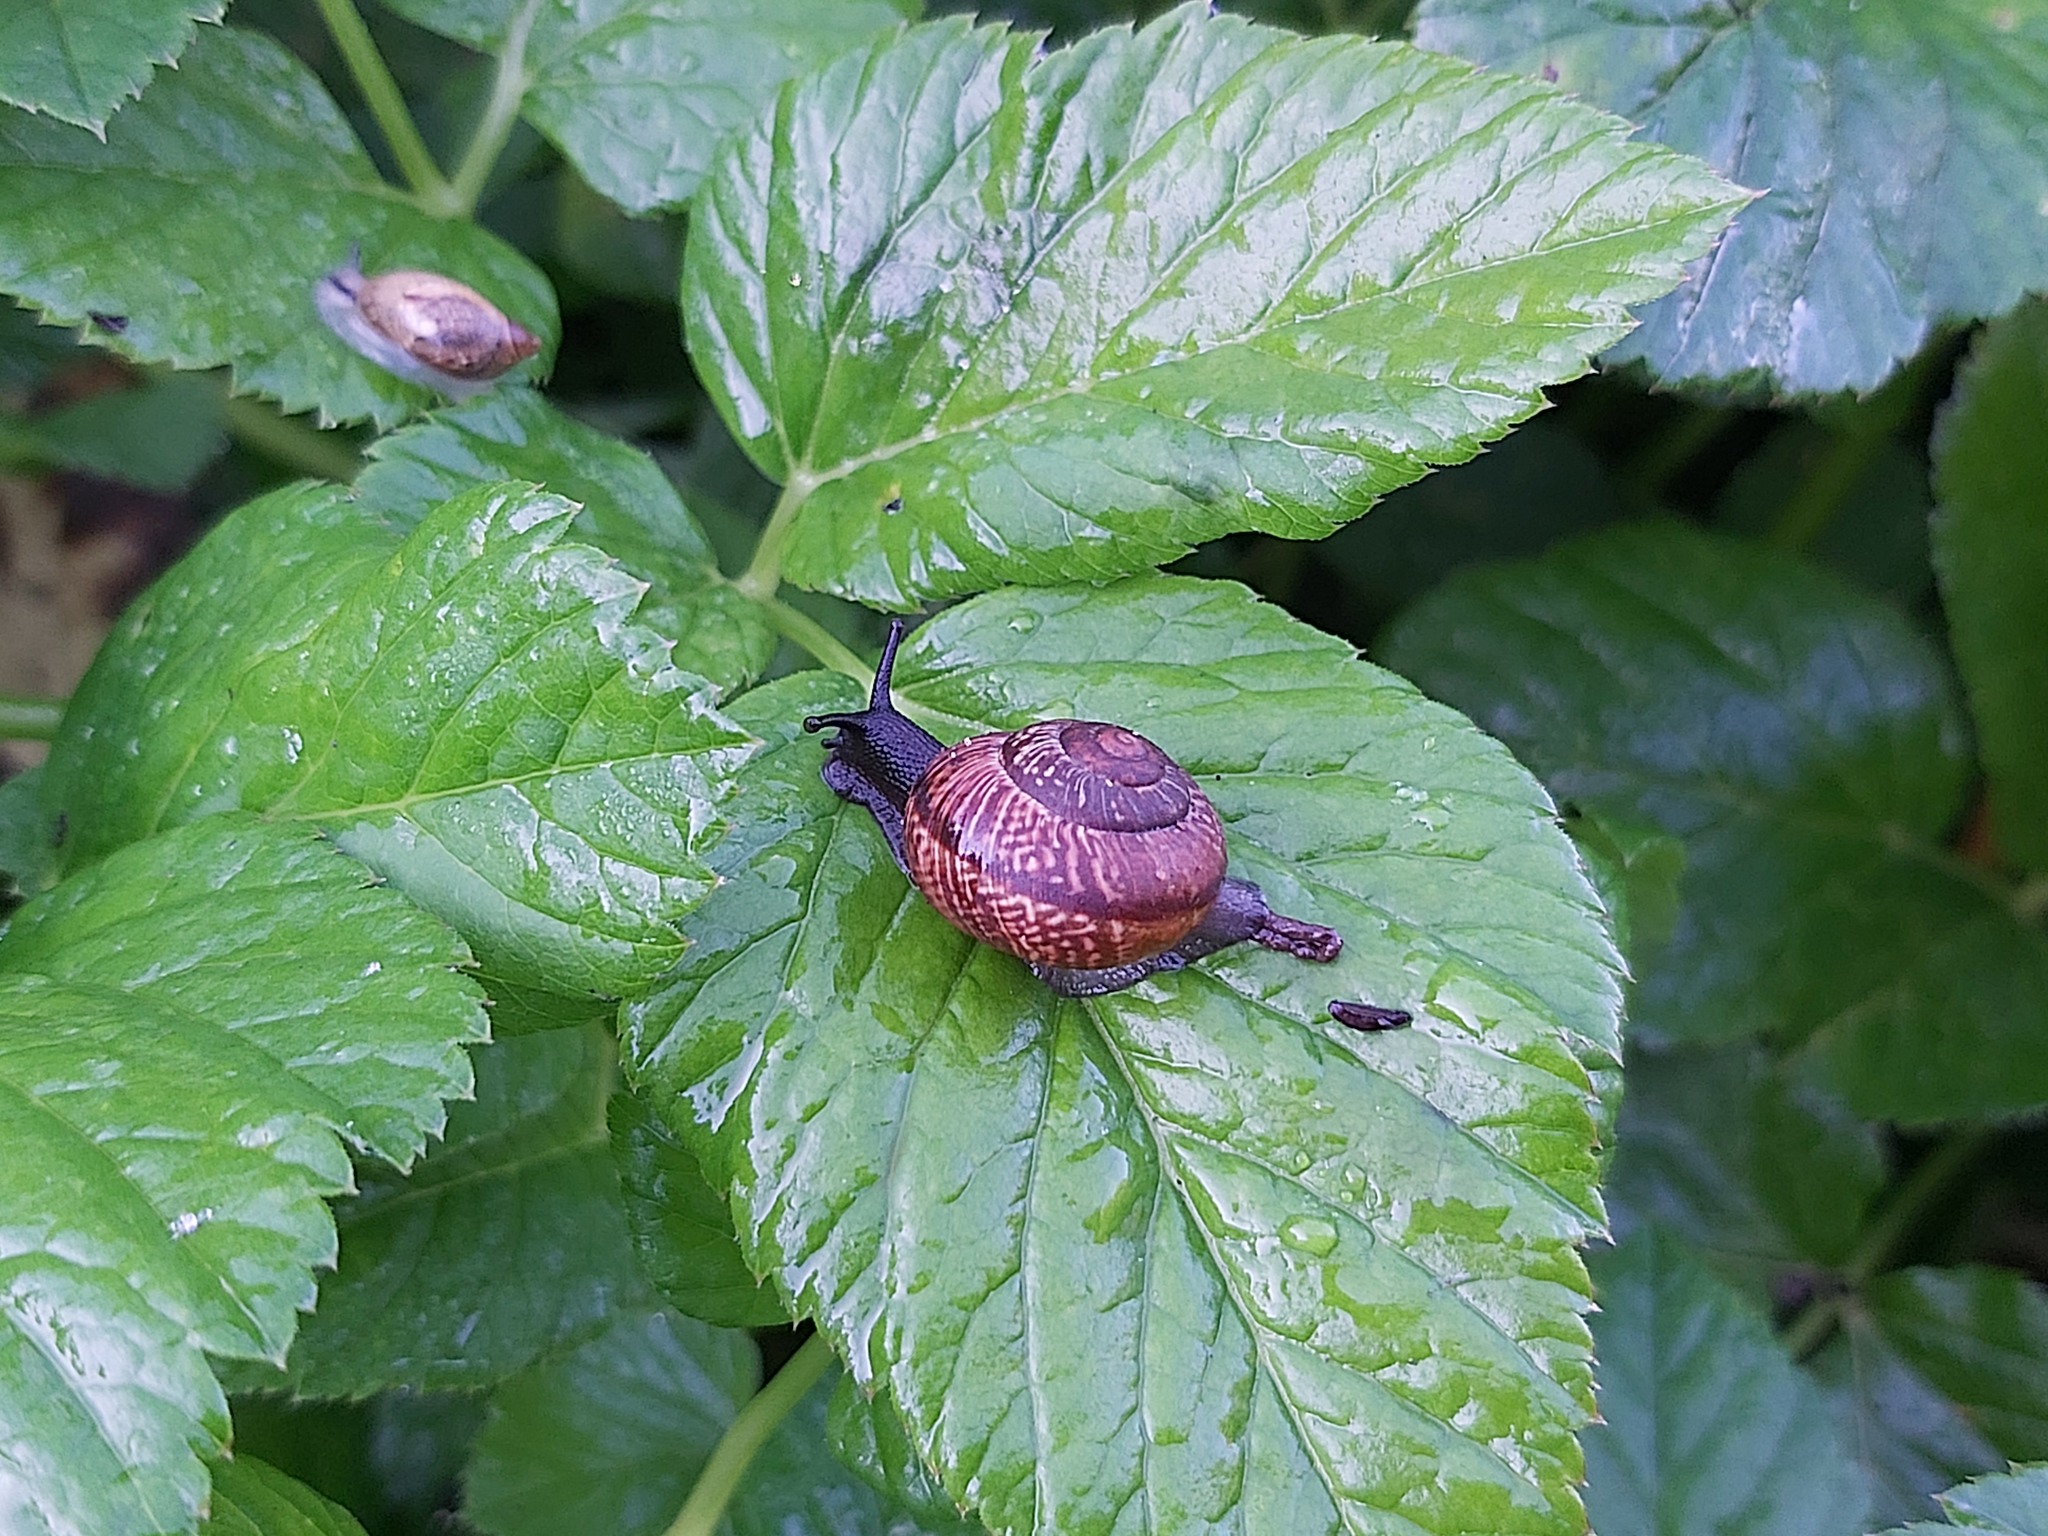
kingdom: Animalia
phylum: Mollusca
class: Gastropoda
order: Stylommatophora
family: Helicidae
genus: Arianta
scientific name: Arianta arbustorum
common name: Copse snail
